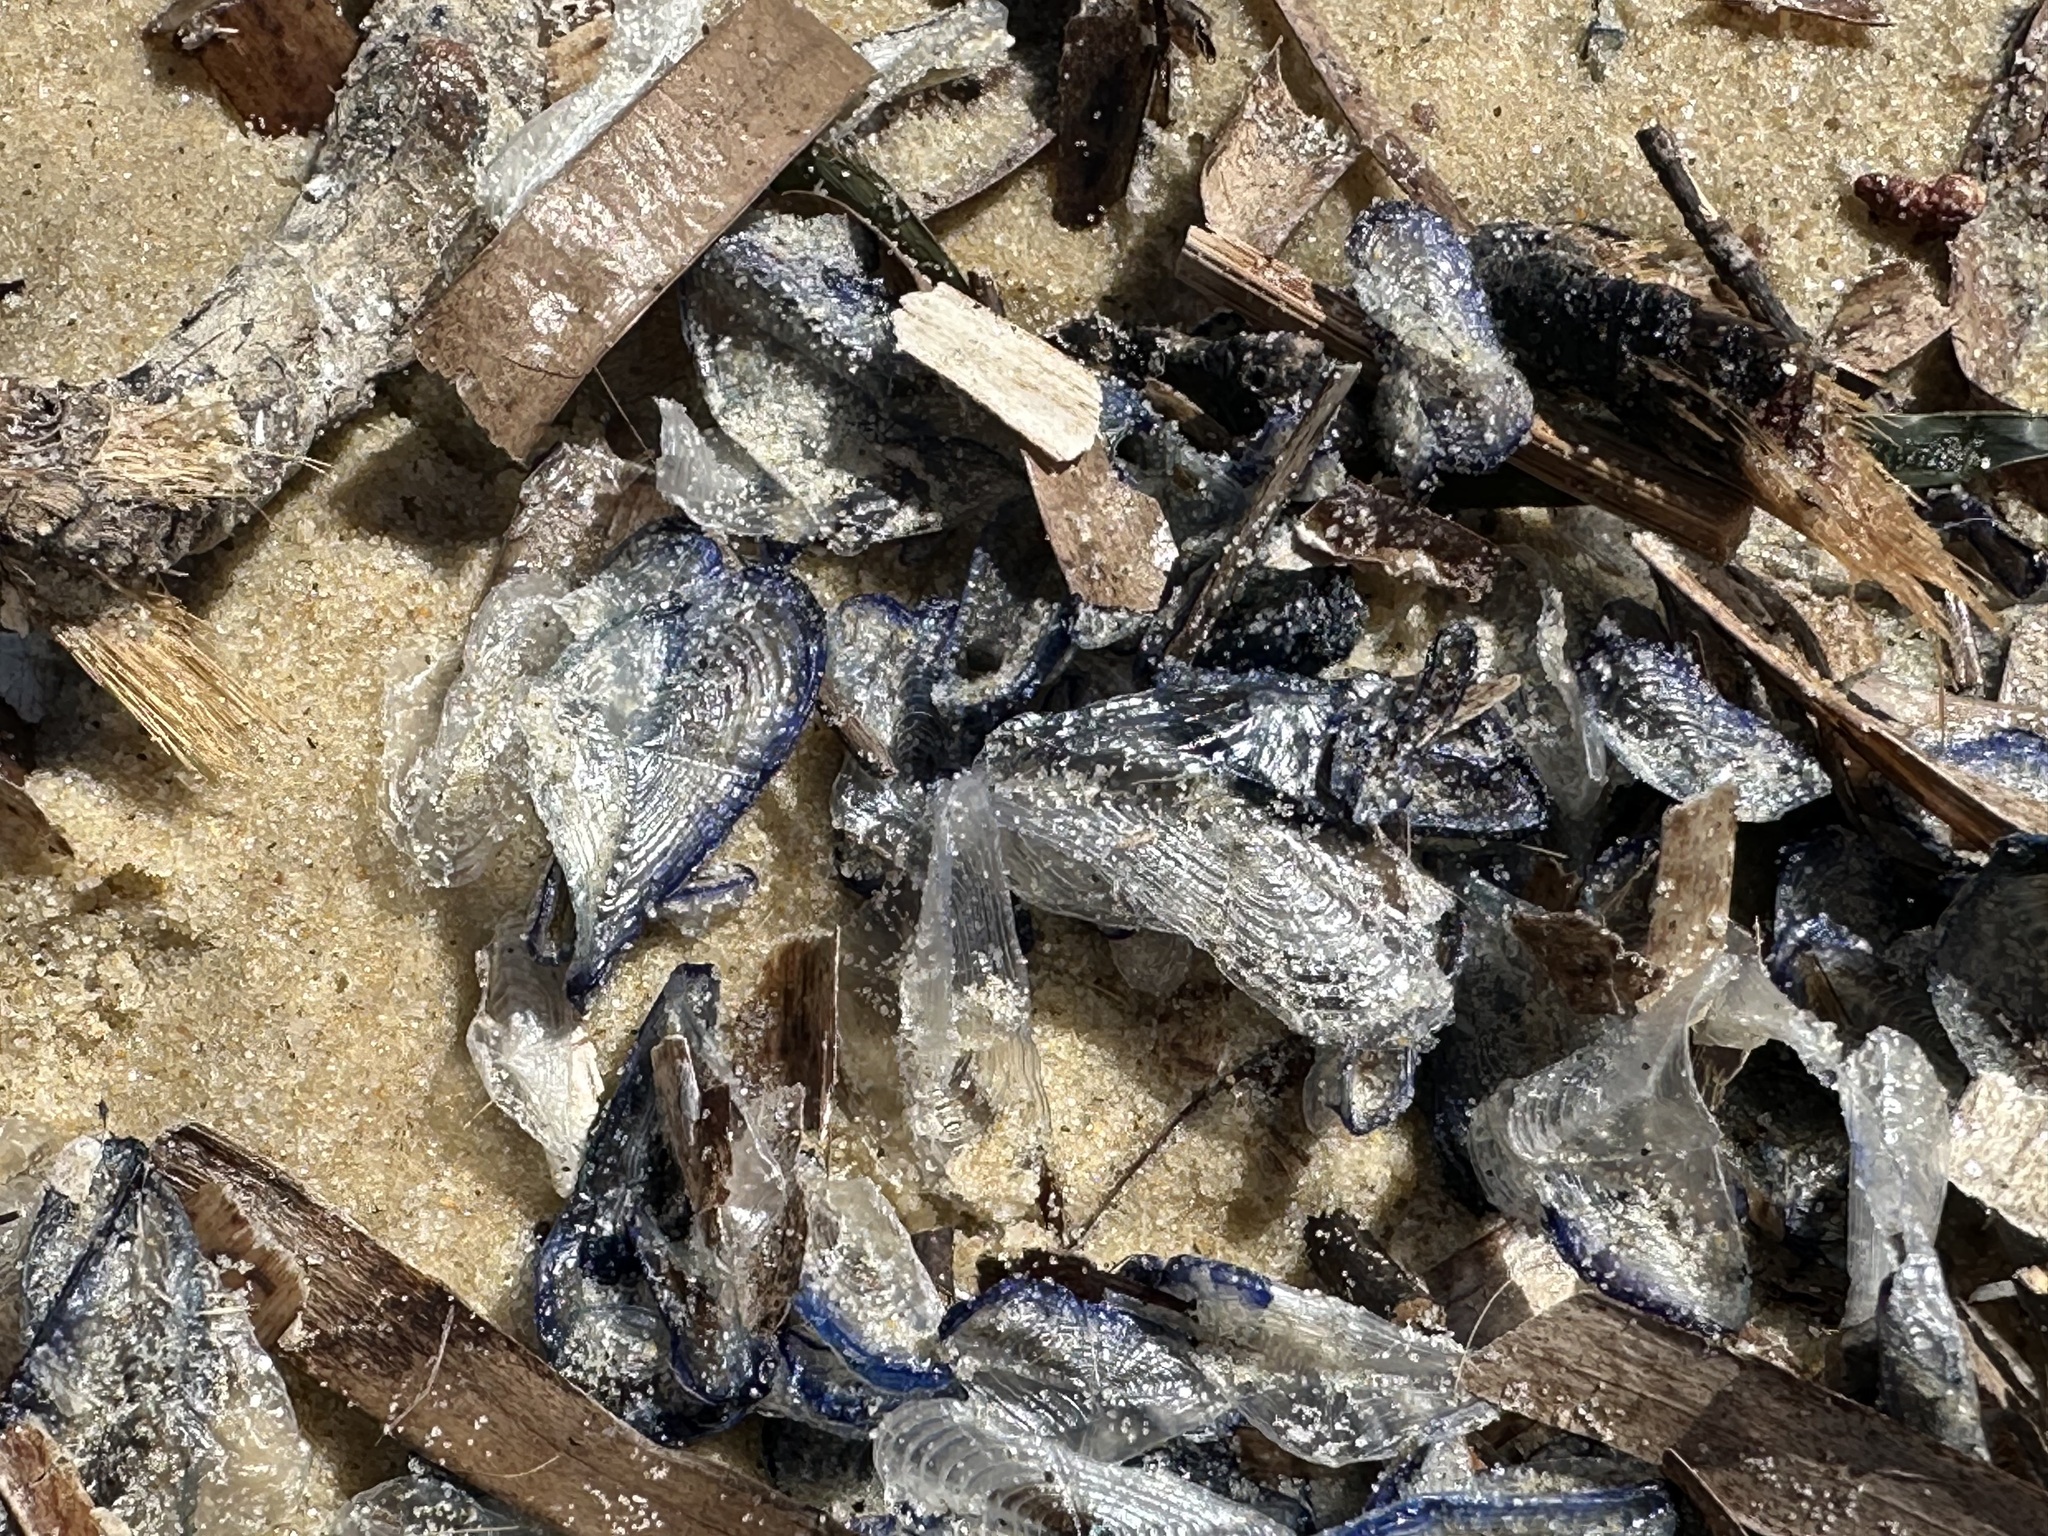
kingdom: Animalia
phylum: Cnidaria
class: Hydrozoa
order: Anthoathecata
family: Porpitidae
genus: Velella
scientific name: Velella velella
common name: By-the-wind-sailor
